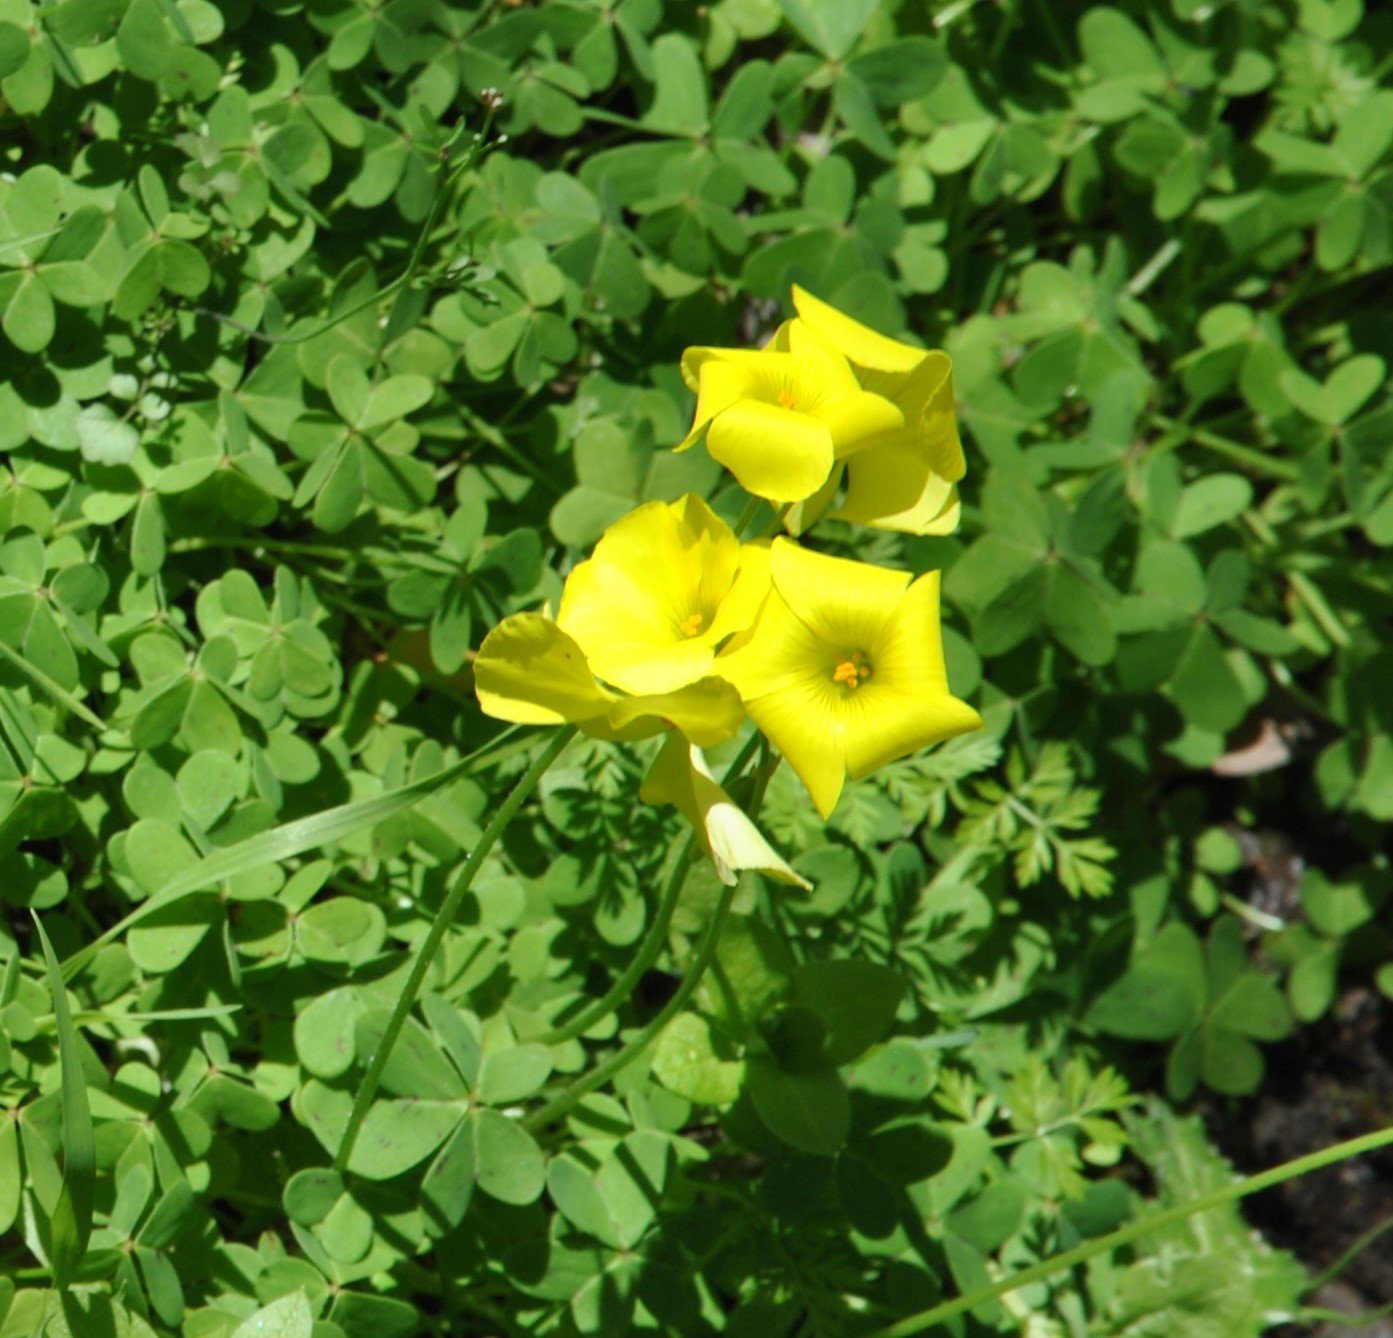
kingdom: Plantae
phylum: Tracheophyta
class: Magnoliopsida
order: Oxalidales
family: Oxalidaceae
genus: Oxalis
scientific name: Oxalis pes-caprae
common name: Bermuda-buttercup
